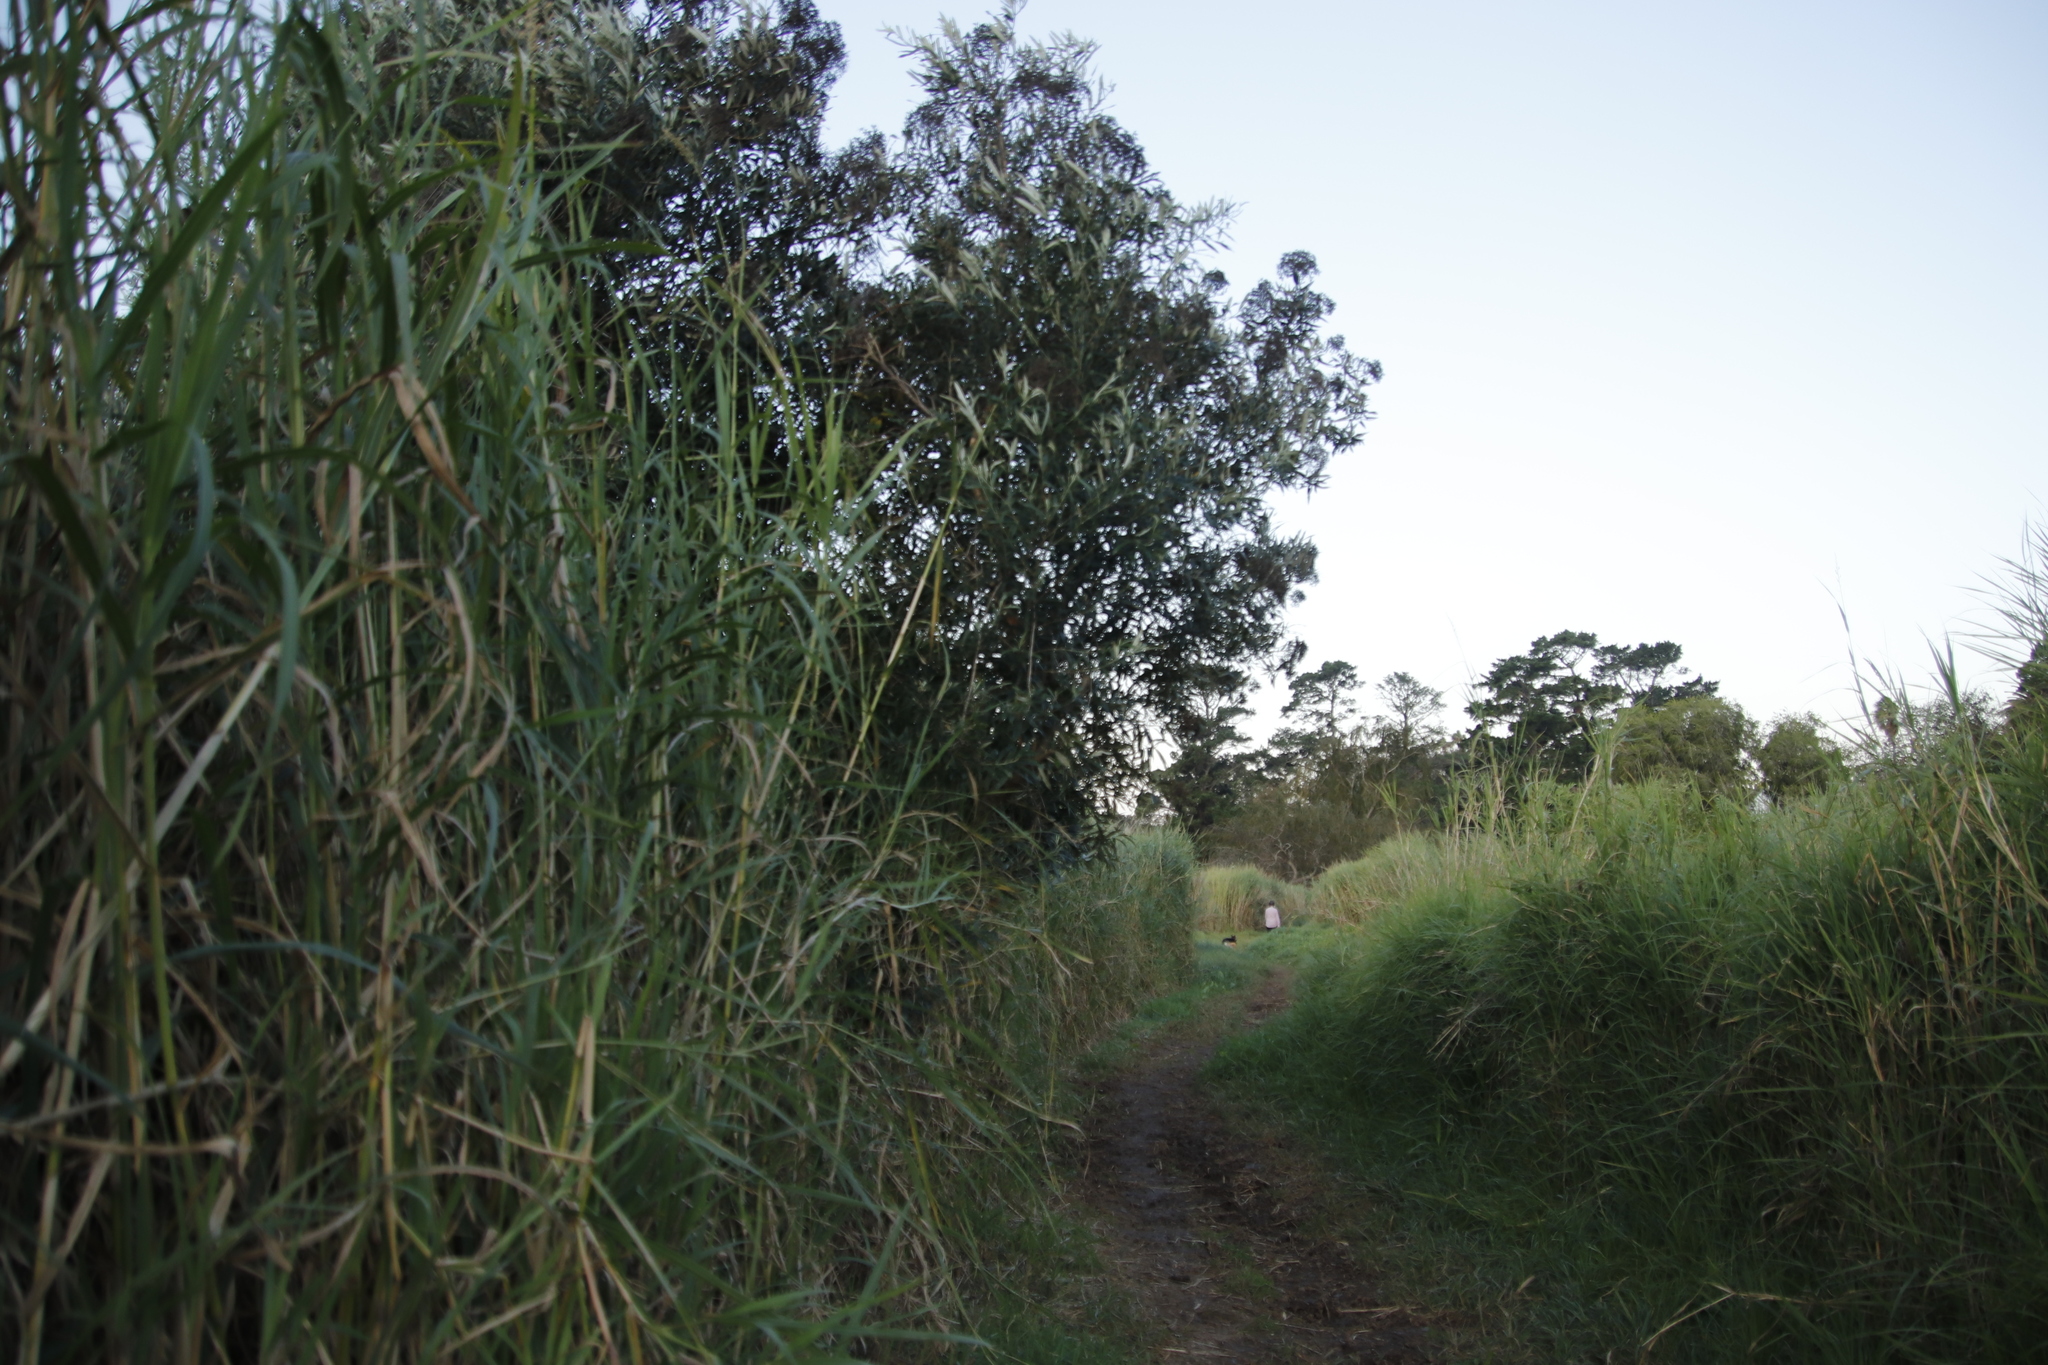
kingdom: Plantae
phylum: Tracheophyta
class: Magnoliopsida
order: Asterales
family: Asteraceae
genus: Tarchonanthus
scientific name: Tarchonanthus littoralis
